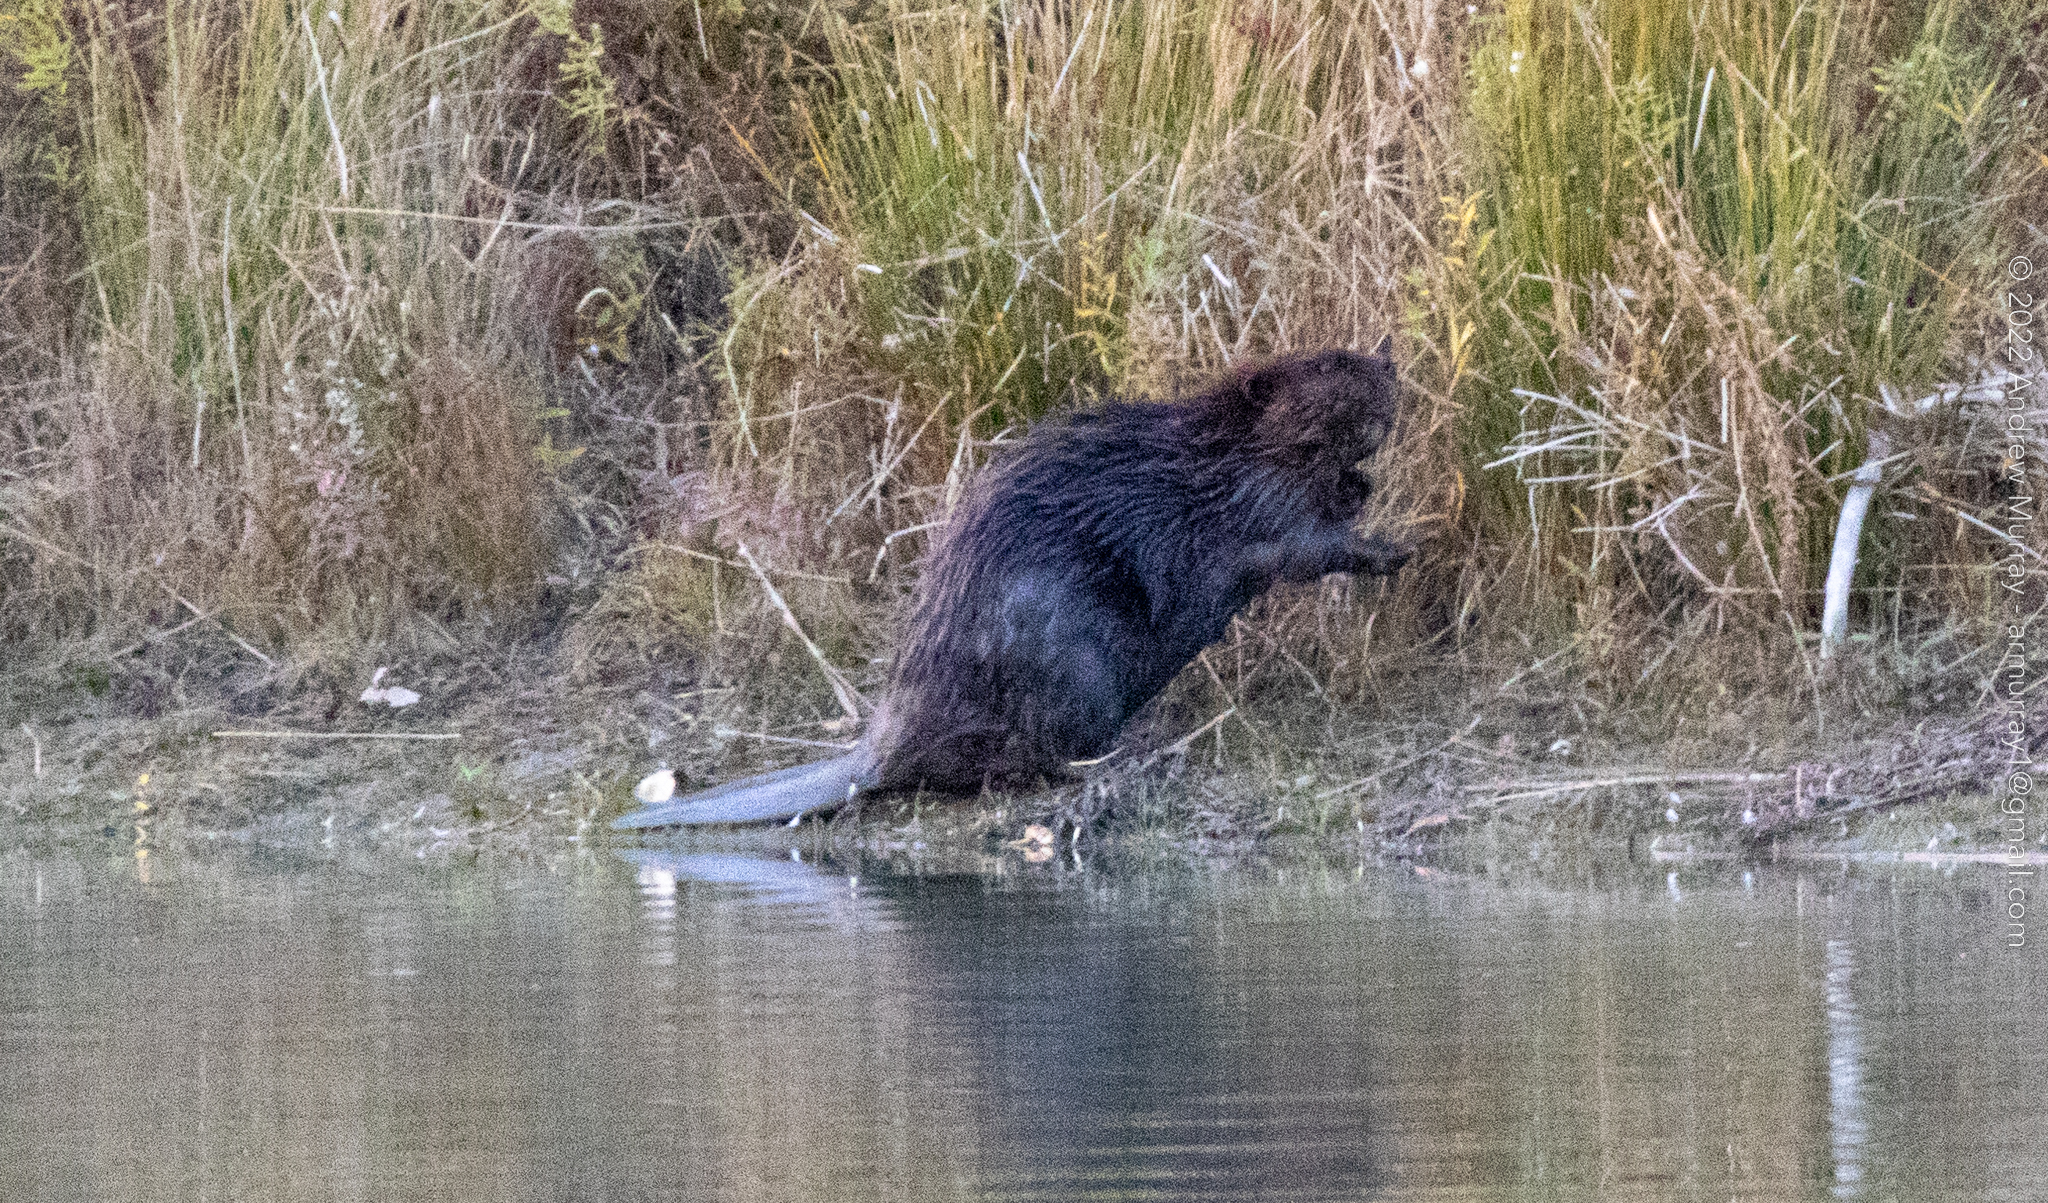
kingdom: Animalia
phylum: Chordata
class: Mammalia
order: Rodentia
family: Castoridae
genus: Castor
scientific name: Castor canadensis
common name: American beaver
